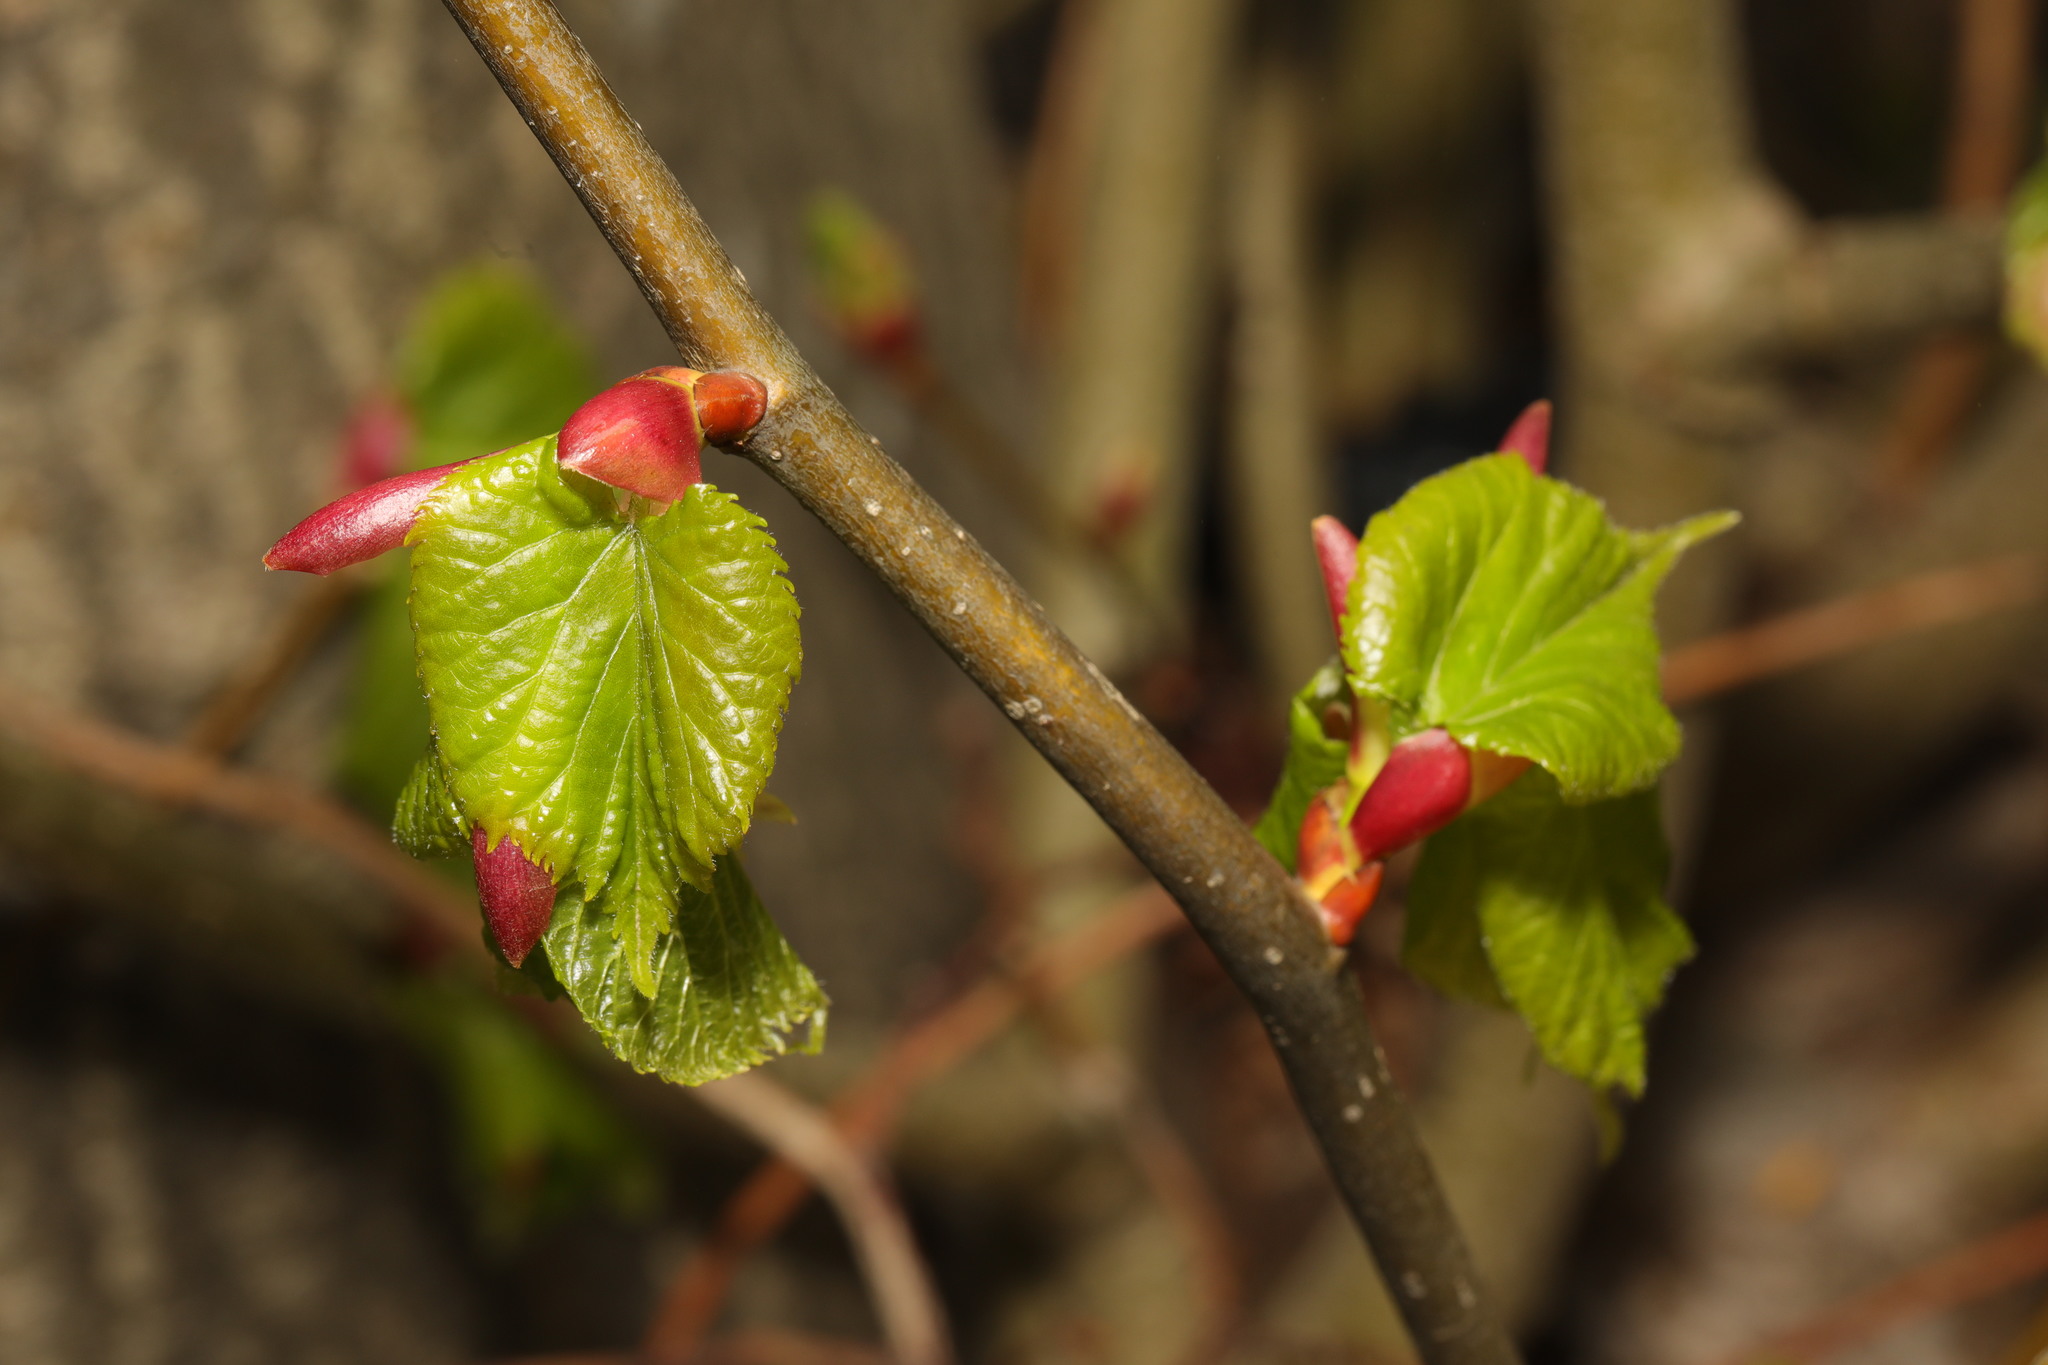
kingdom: Plantae
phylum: Tracheophyta
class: Magnoliopsida
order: Malvales
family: Malvaceae
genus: Tilia
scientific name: Tilia europaea
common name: European linden
